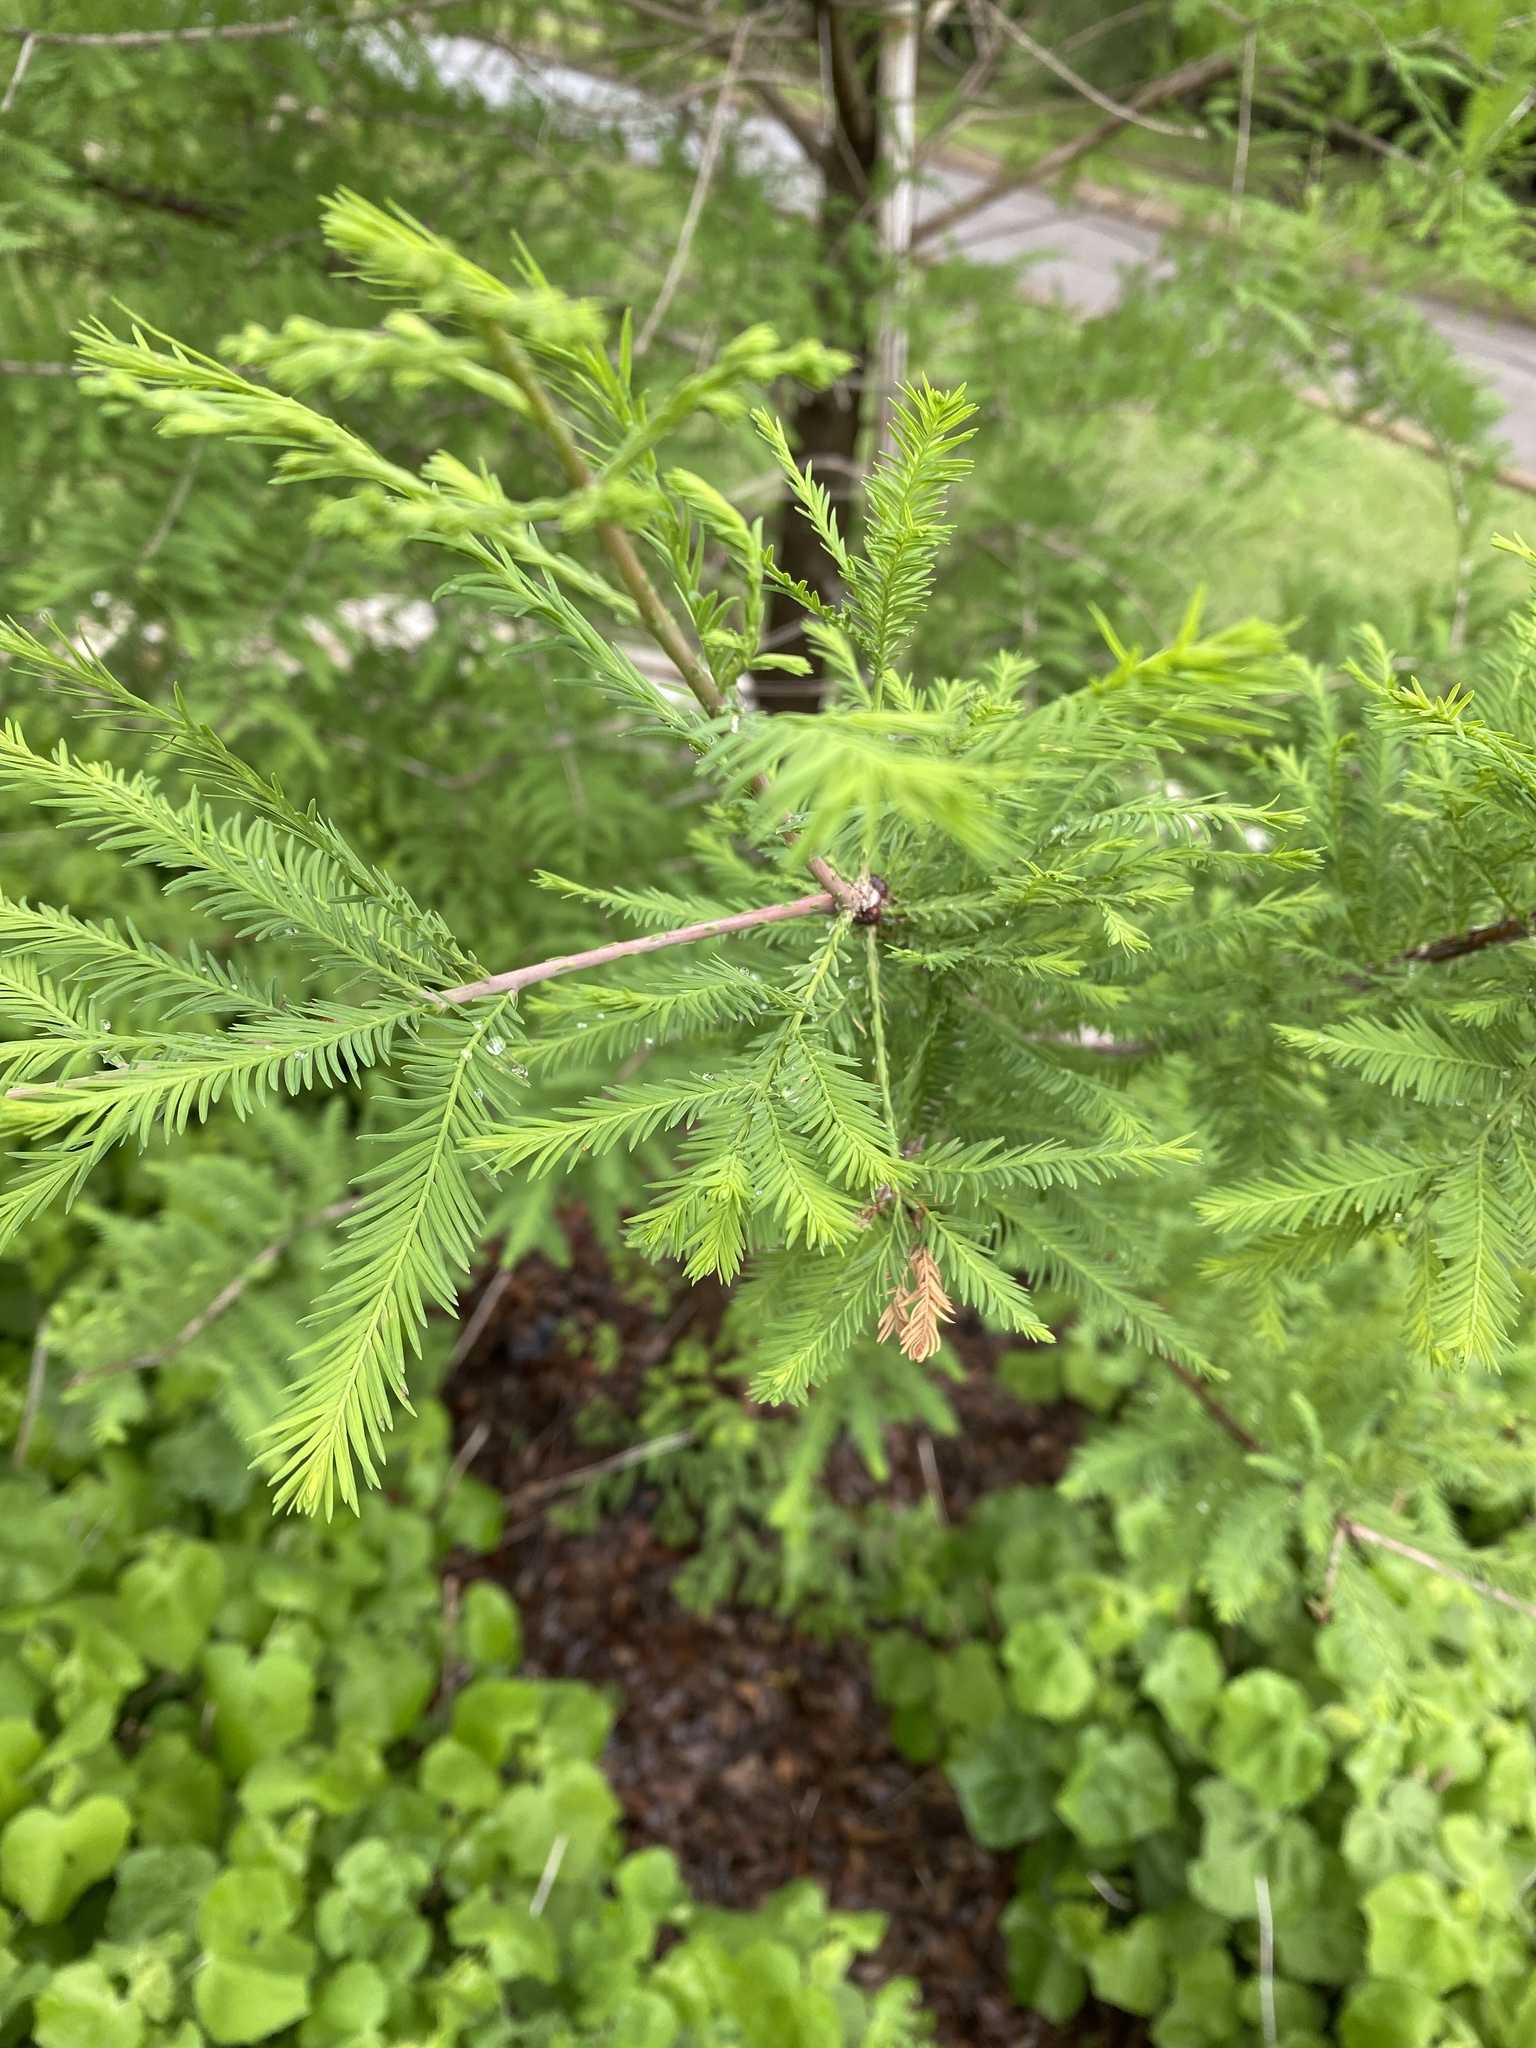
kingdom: Plantae
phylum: Tracheophyta
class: Pinopsida
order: Pinales
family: Cupressaceae
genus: Taxodium
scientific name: Taxodium distichum
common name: Bald cypress
